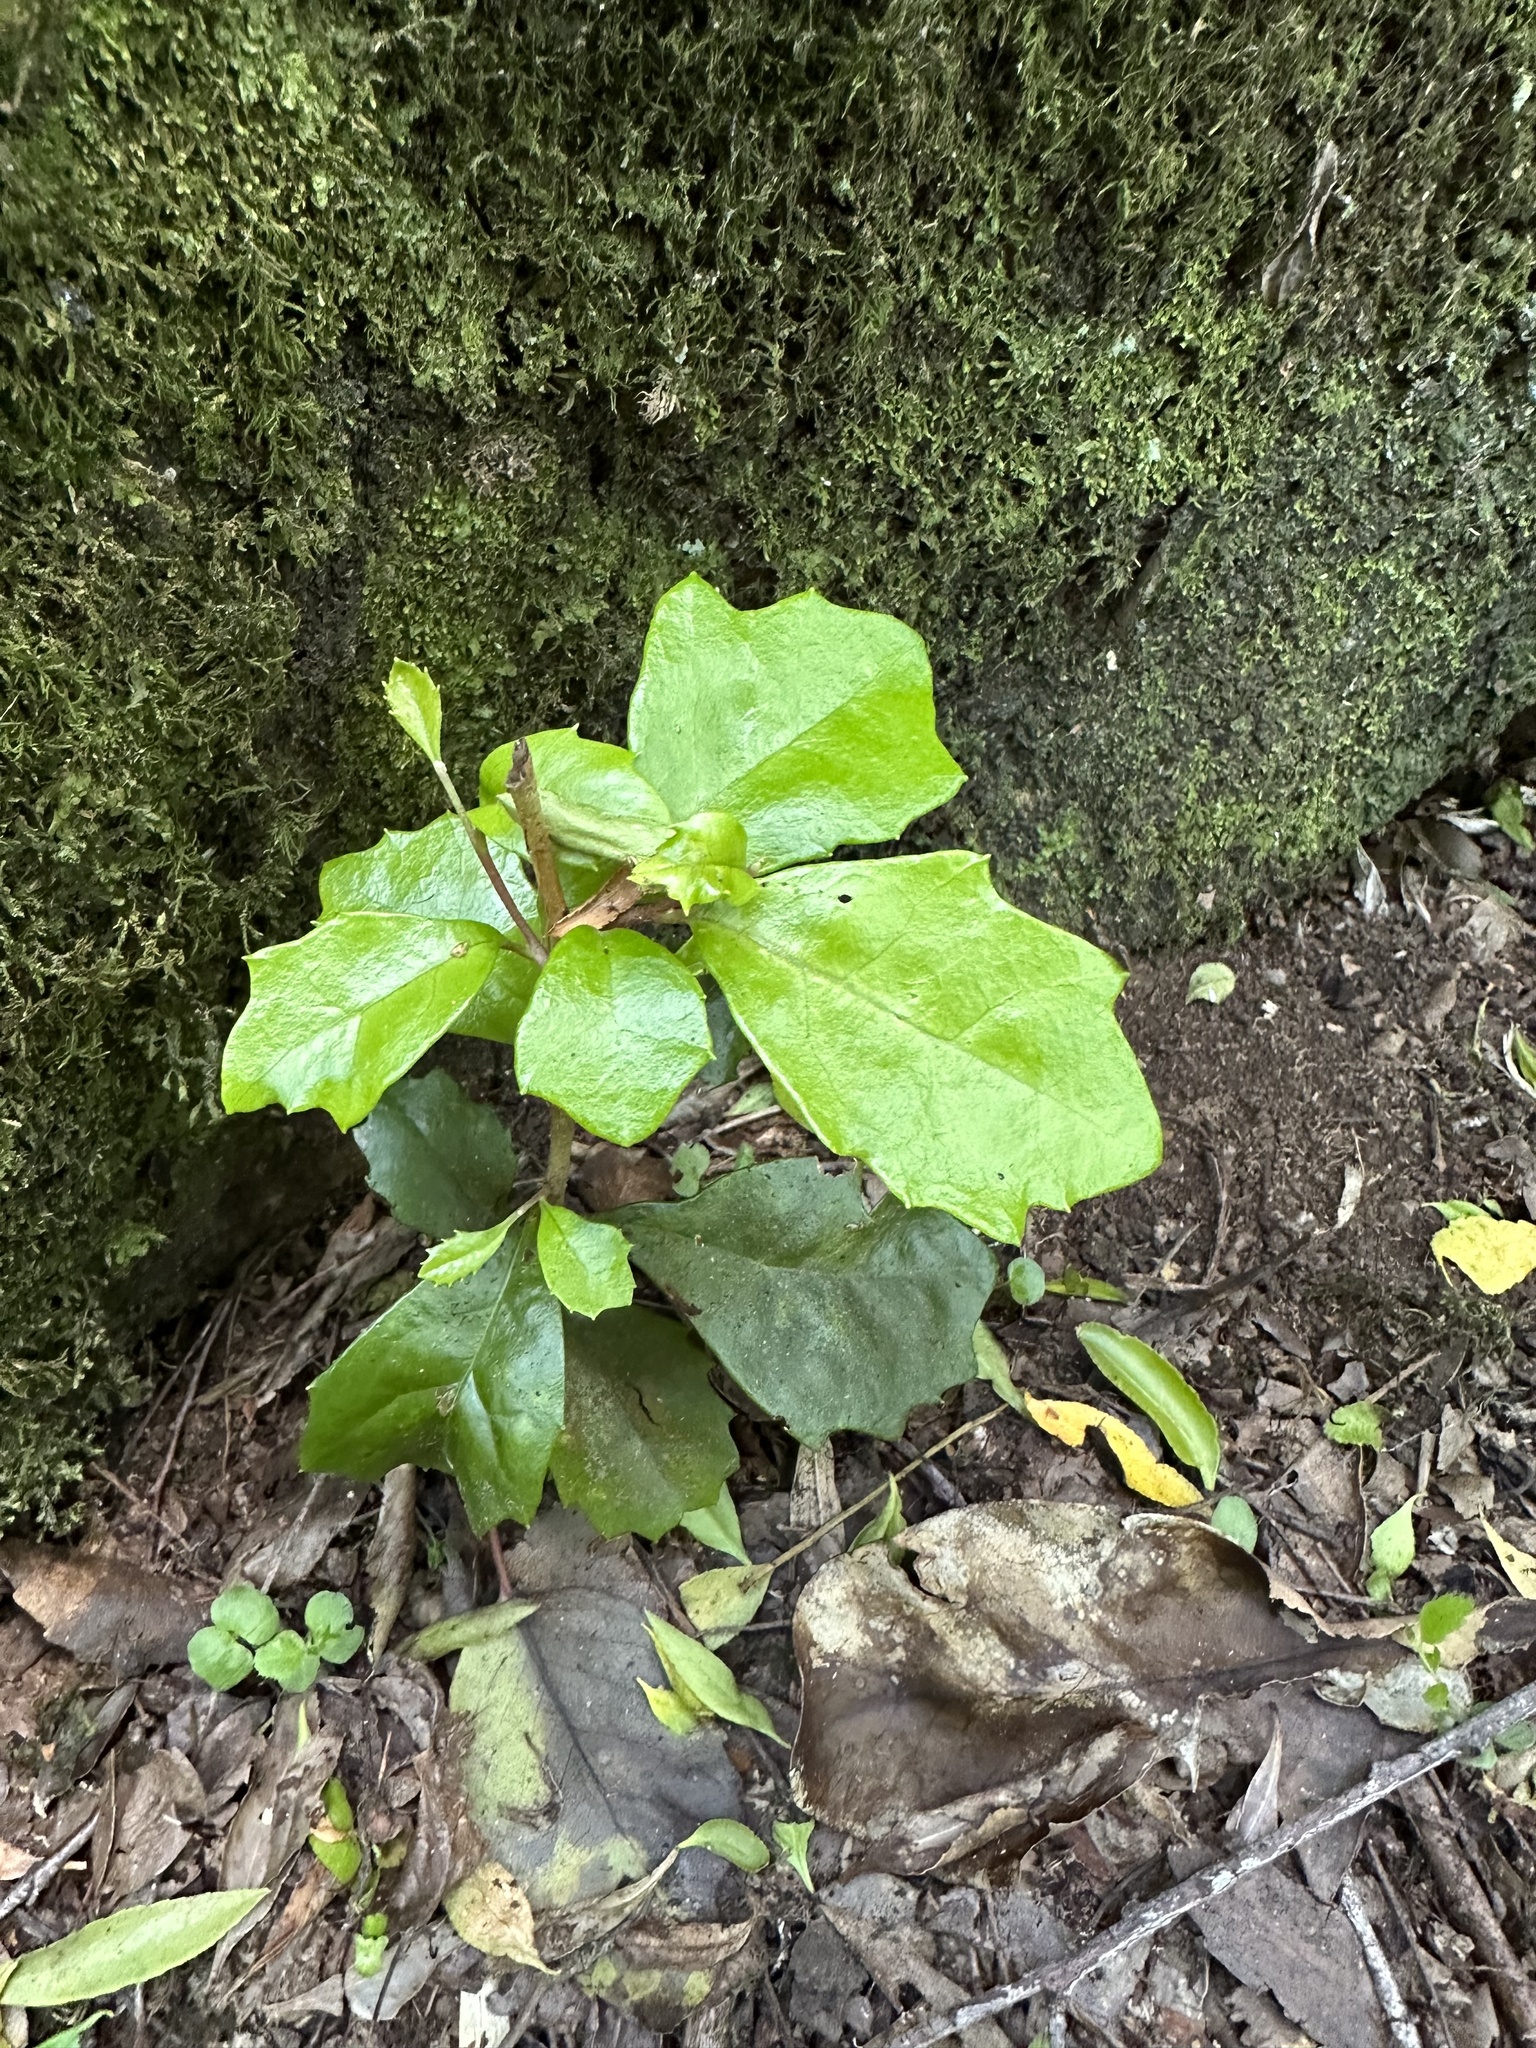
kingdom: Plantae
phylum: Tracheophyta
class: Magnoliopsida
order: Proteales
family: Proteaceae
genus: Lomatia
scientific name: Lomatia dentata
